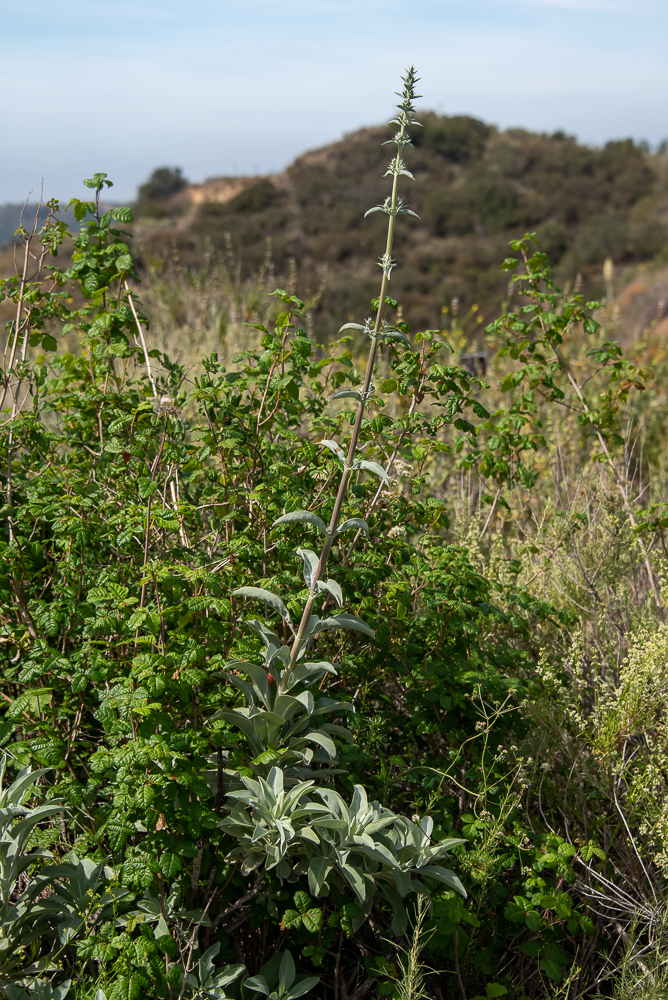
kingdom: Plantae
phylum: Tracheophyta
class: Magnoliopsida
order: Lamiales
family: Lamiaceae
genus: Salvia
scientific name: Salvia apiana
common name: White sage
